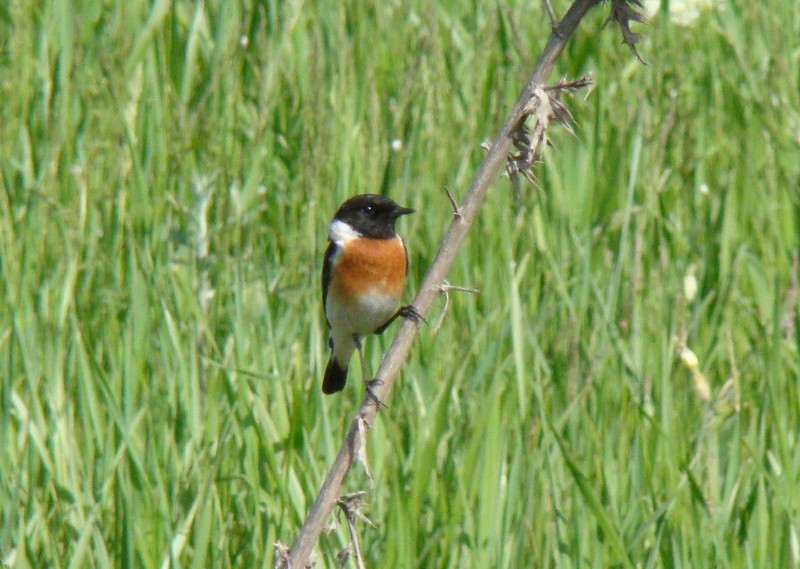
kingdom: Animalia
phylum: Chordata
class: Aves
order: Passeriformes
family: Muscicapidae
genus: Saxicola
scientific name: Saxicola rubicola
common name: European stonechat
